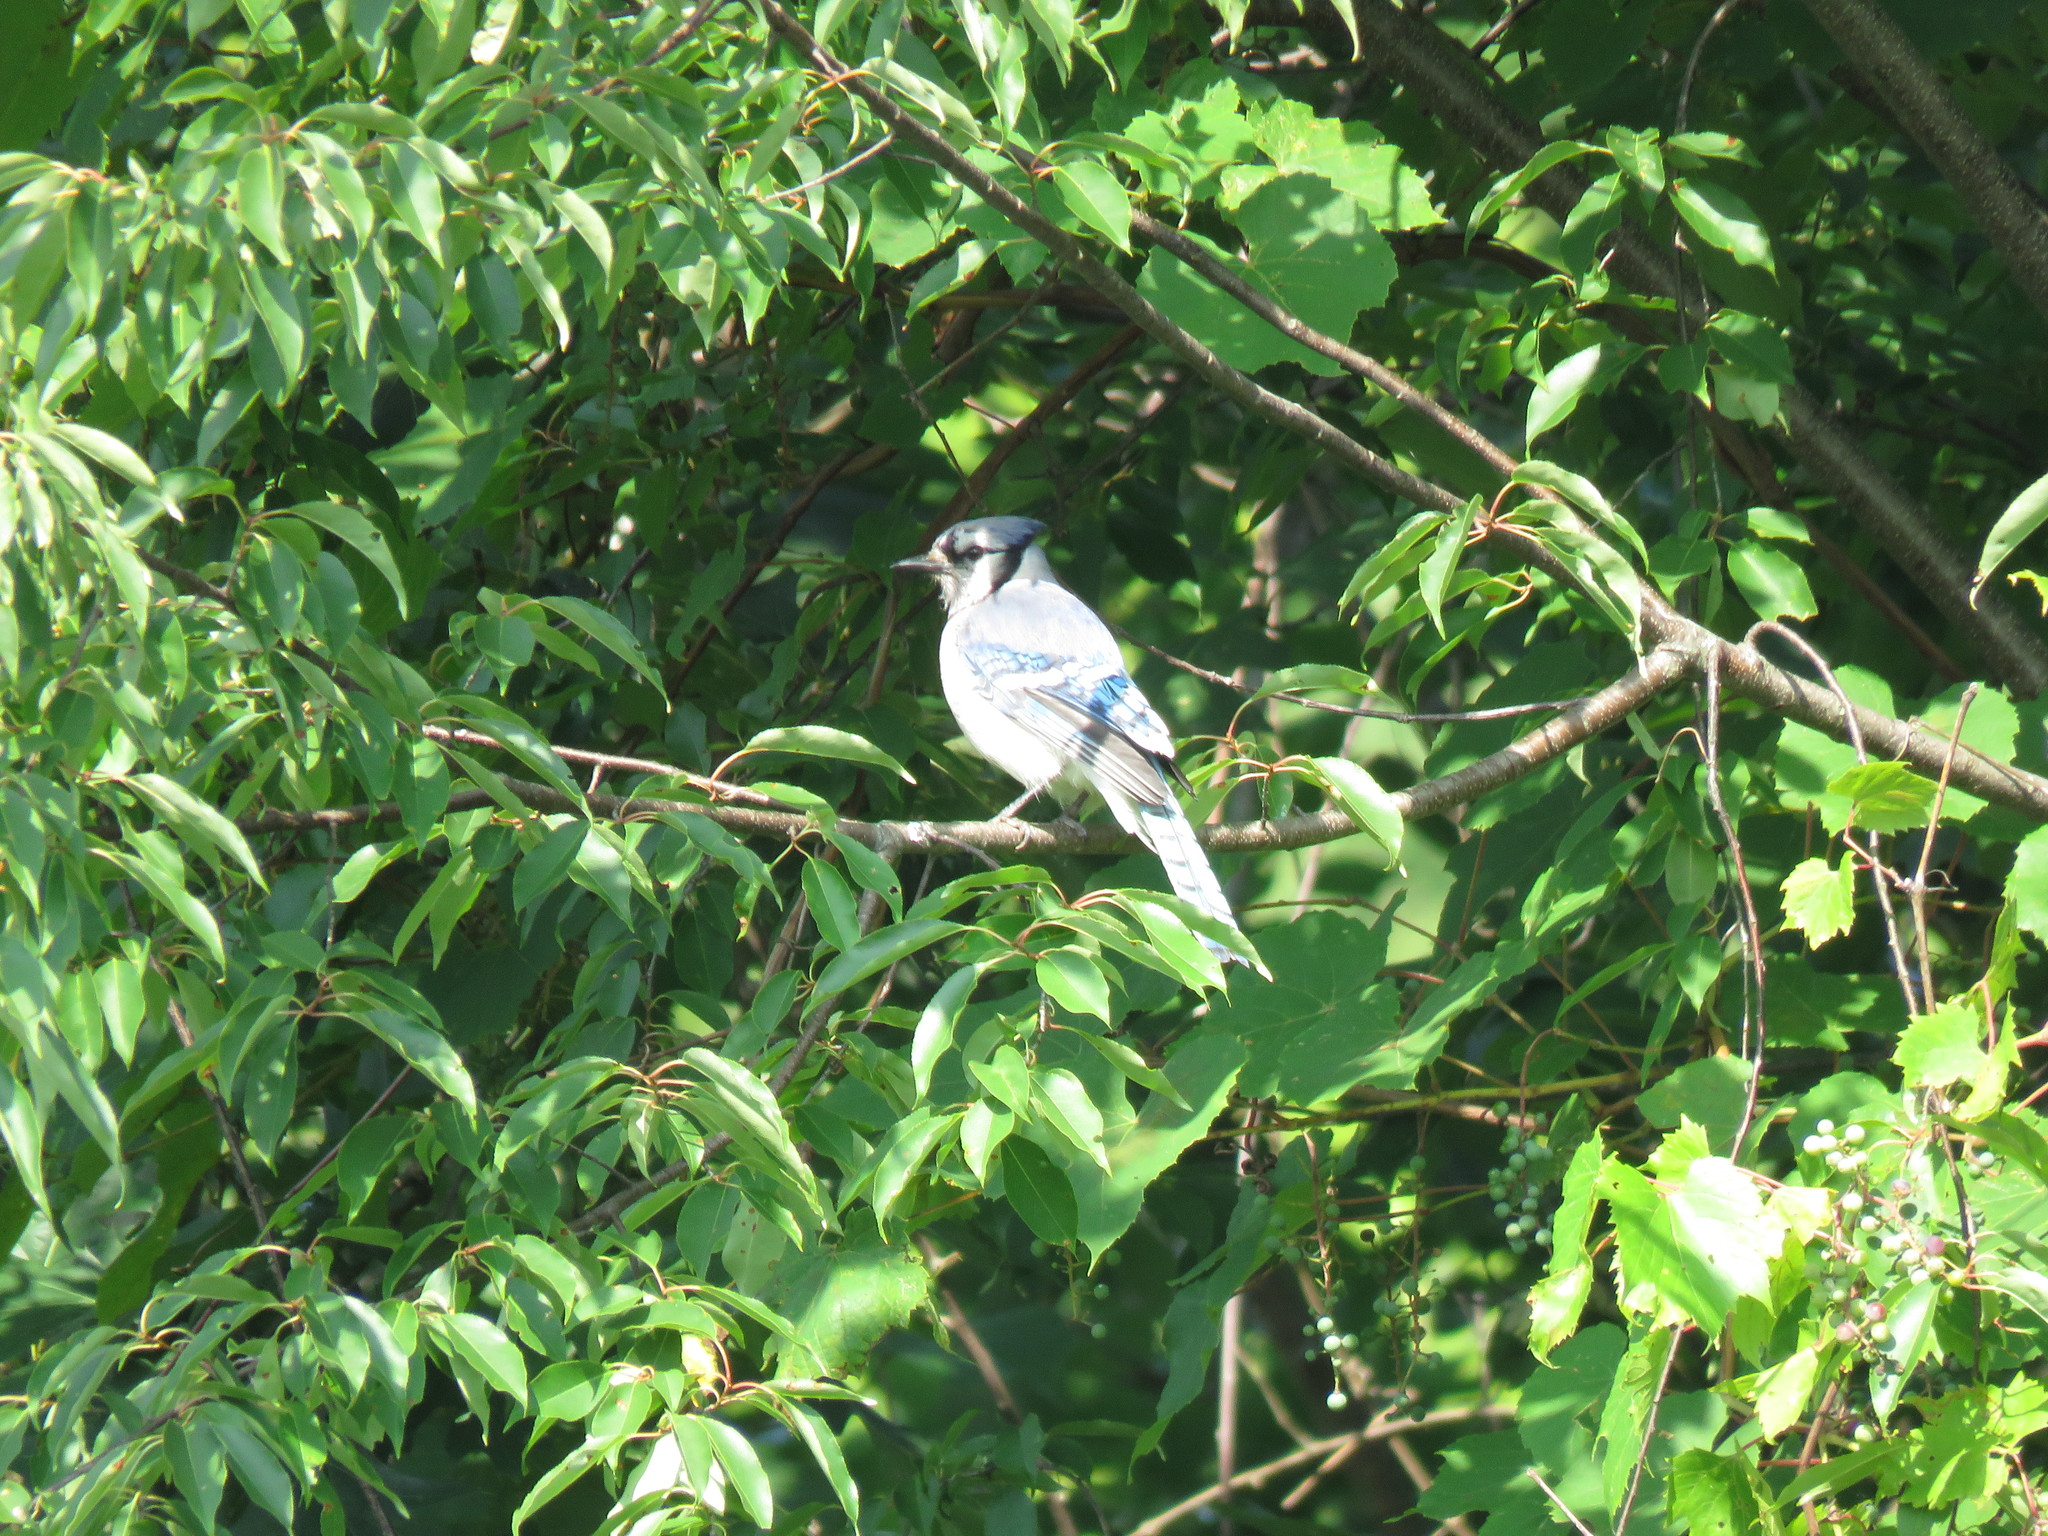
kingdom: Animalia
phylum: Chordata
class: Aves
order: Passeriformes
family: Corvidae
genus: Cyanocitta
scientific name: Cyanocitta cristata
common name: Blue jay
